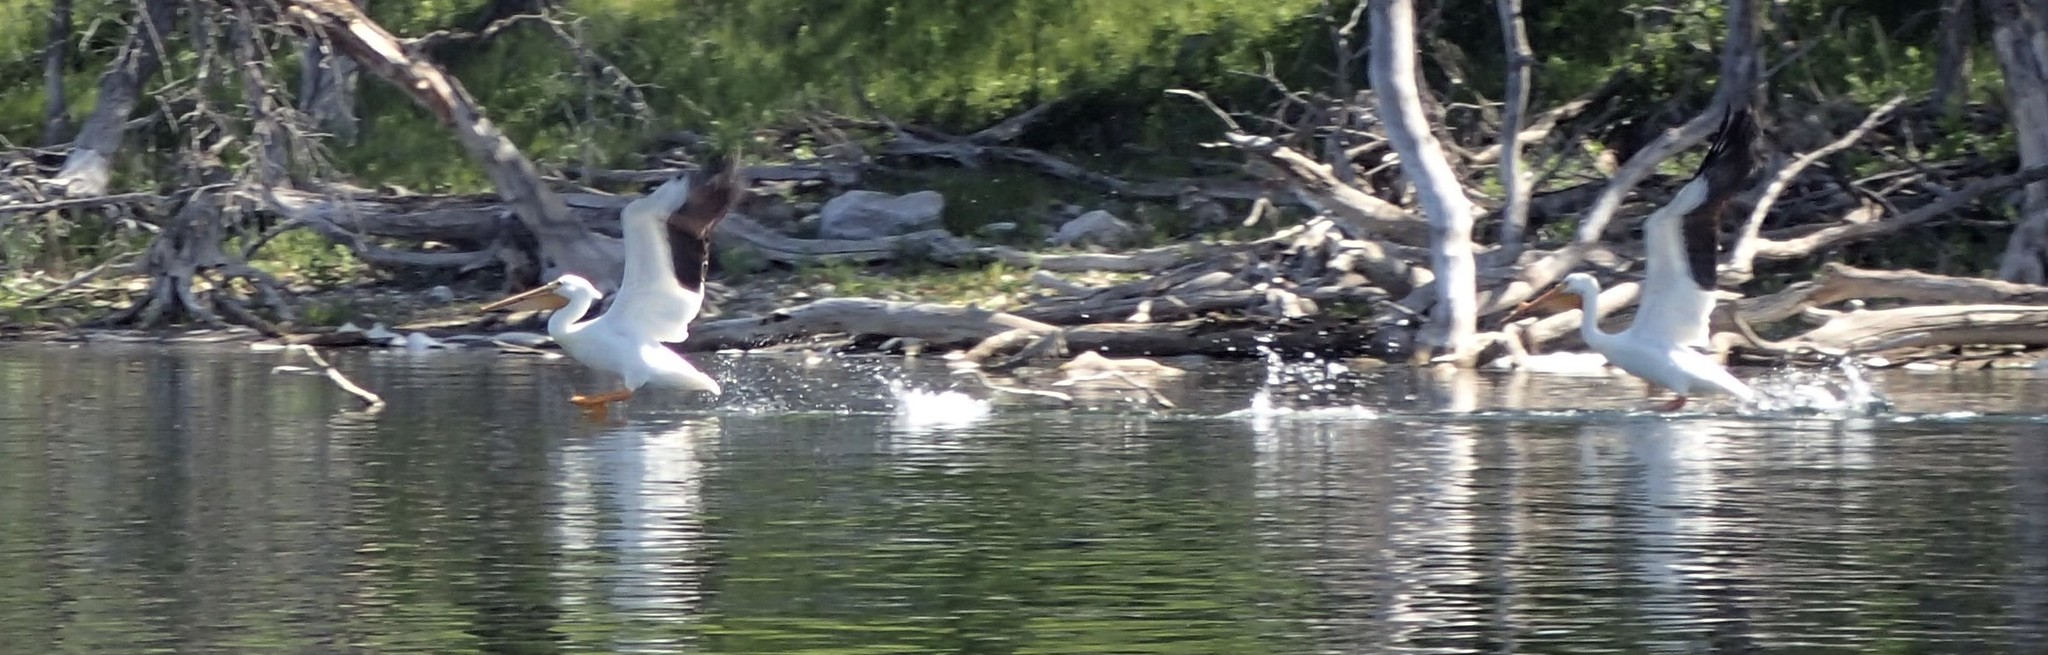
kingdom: Animalia
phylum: Chordata
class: Aves
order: Pelecaniformes
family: Pelecanidae
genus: Pelecanus
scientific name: Pelecanus erythrorhynchos
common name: American white pelican
